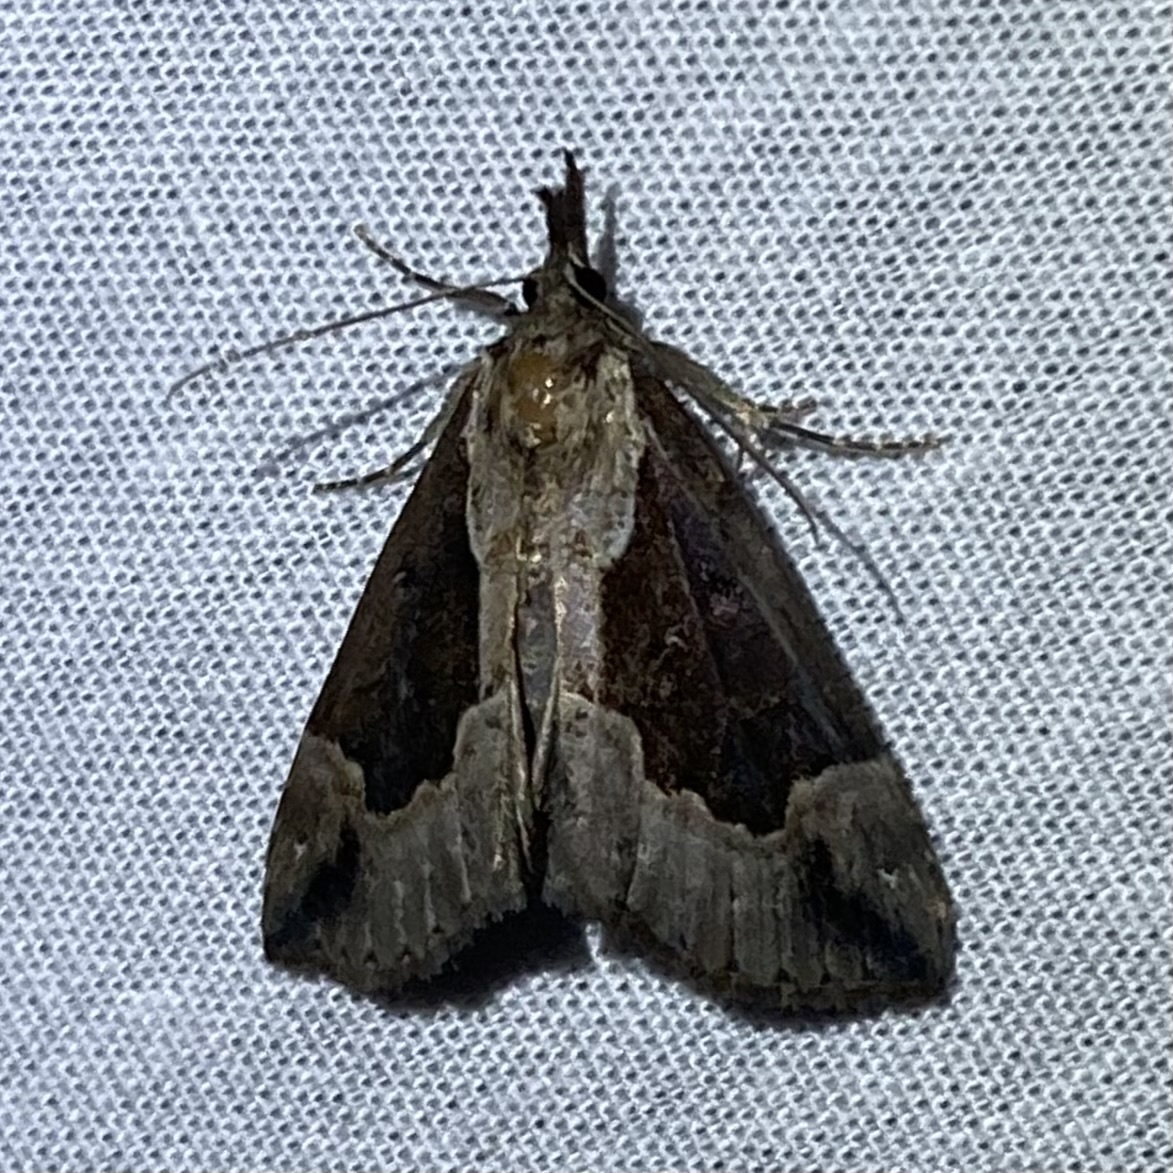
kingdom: Animalia
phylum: Arthropoda
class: Insecta
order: Lepidoptera
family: Erebidae
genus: Hypena
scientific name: Hypena baltimoralis
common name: Baltimore snout
